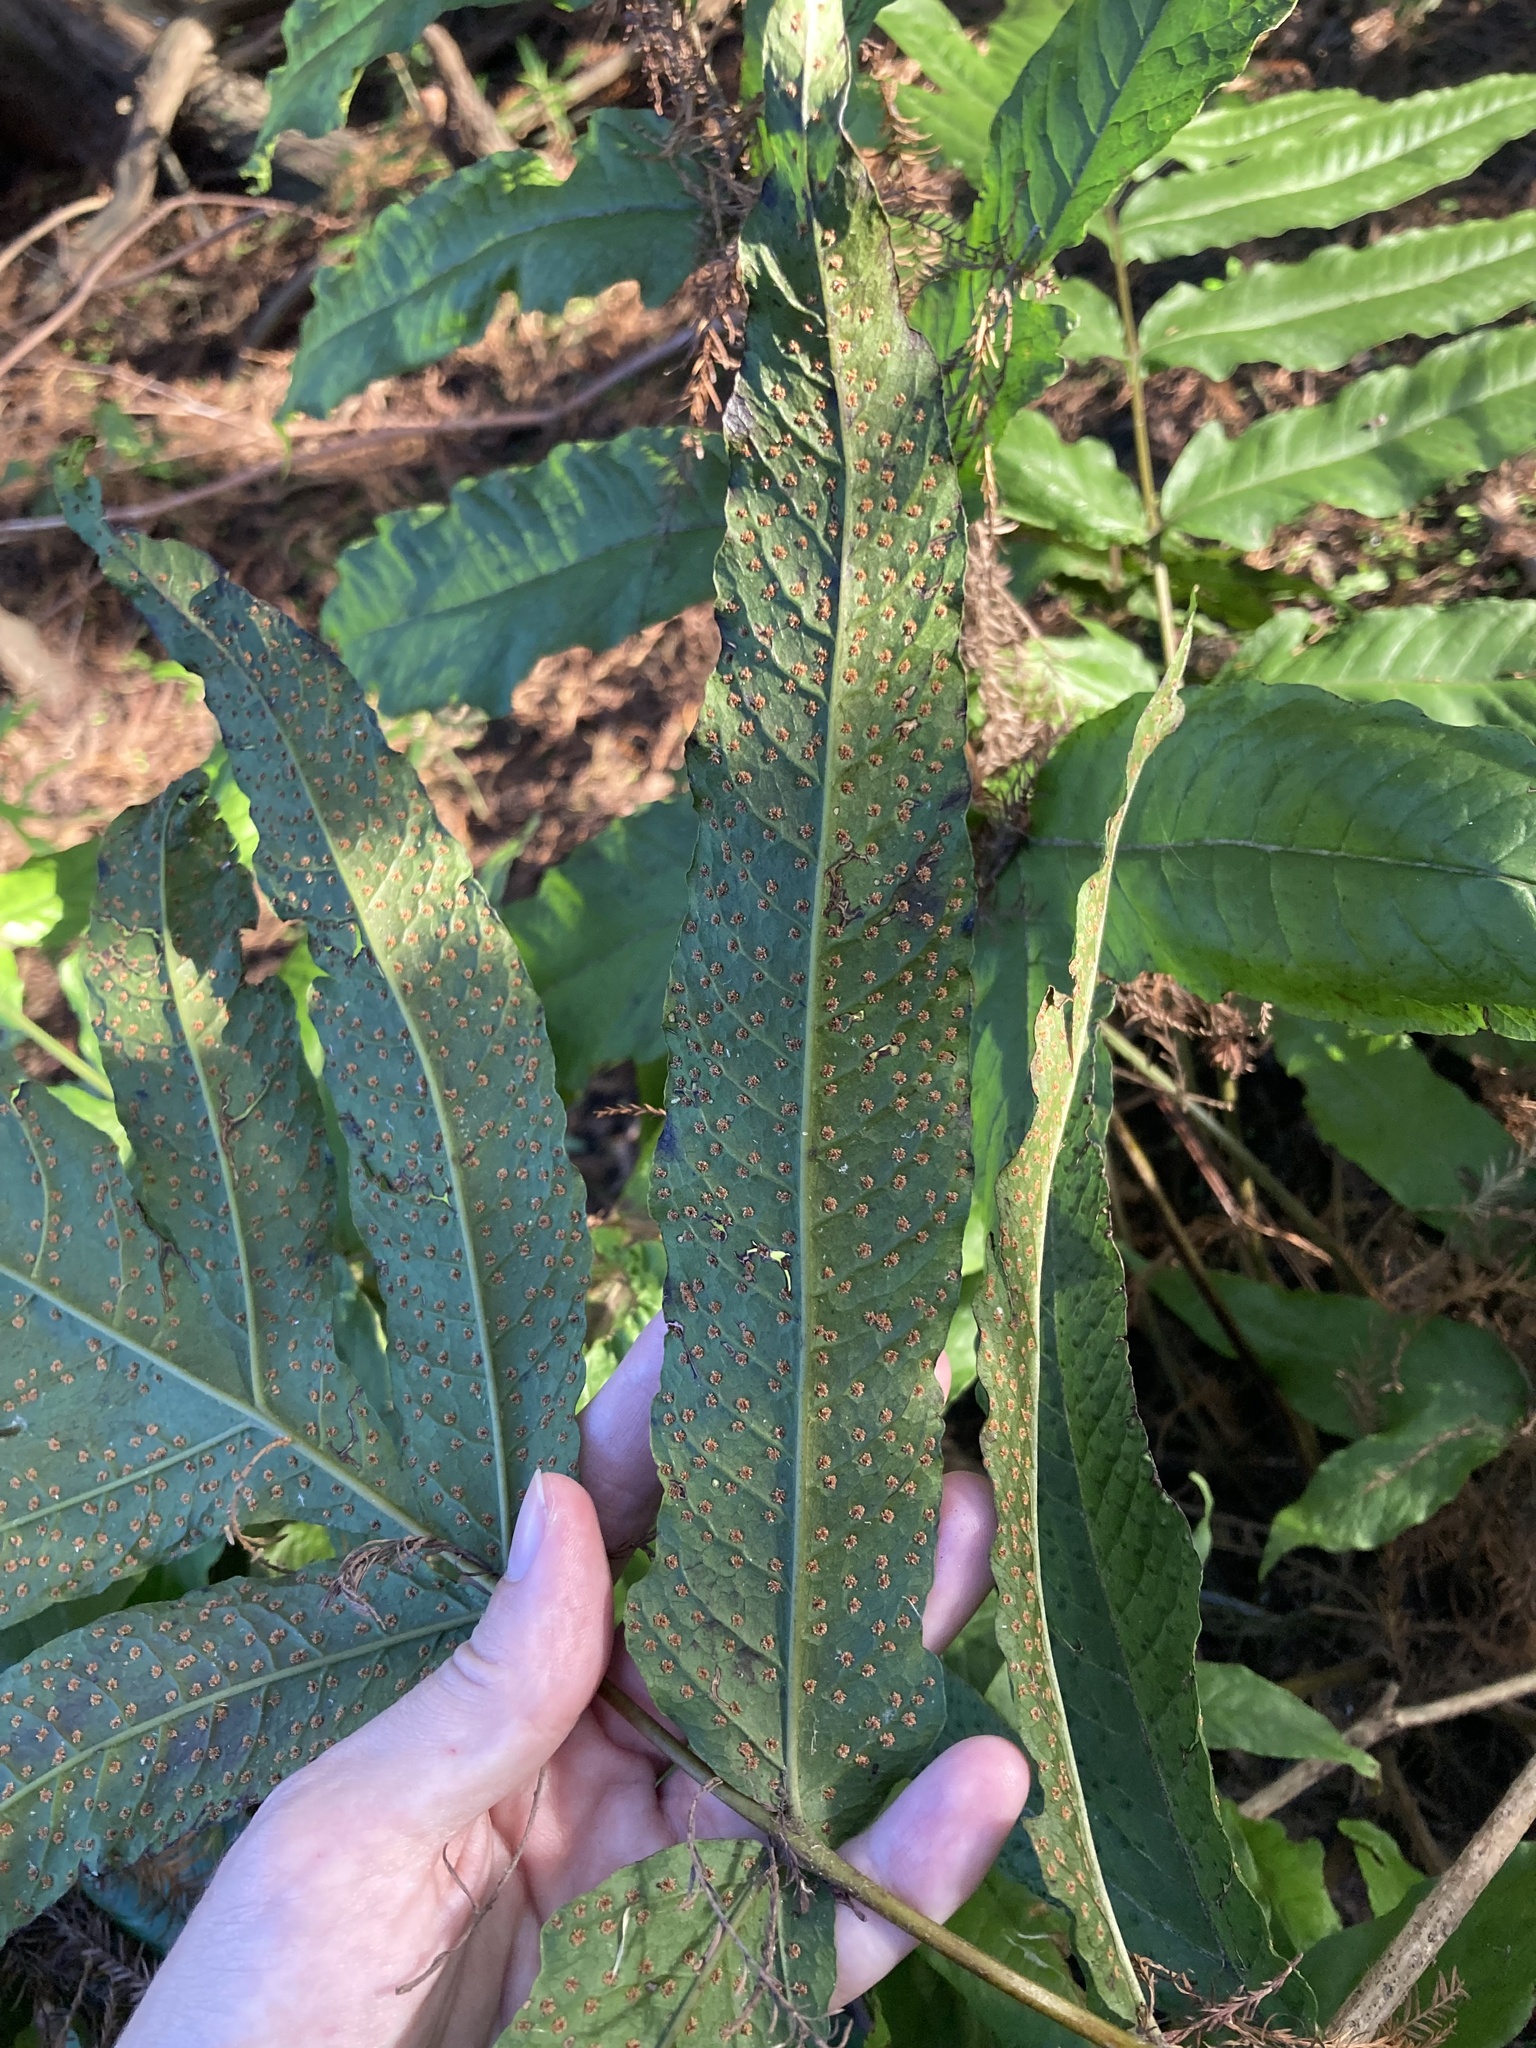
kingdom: Plantae
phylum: Tracheophyta
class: Polypodiopsida
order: Polypodiales
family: Tectariaceae
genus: Tectaria
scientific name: Tectaria incisa
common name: Incised halberd fern
